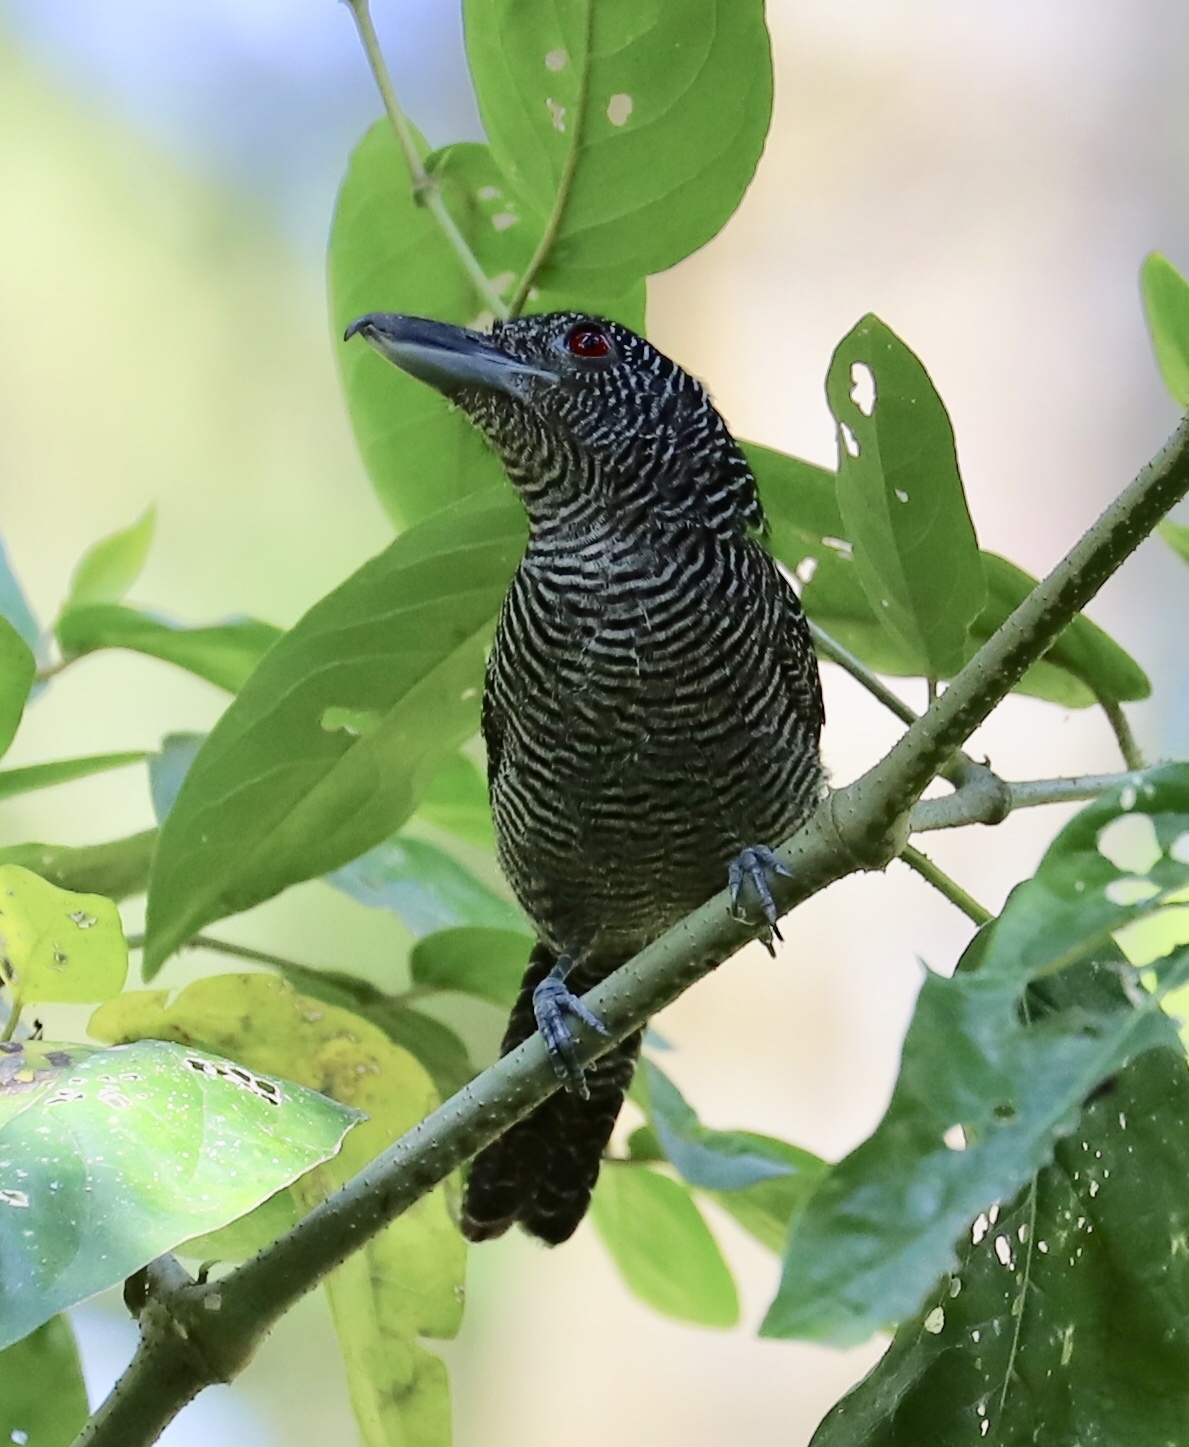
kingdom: Animalia
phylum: Chordata
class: Aves
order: Passeriformes
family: Thamnophilidae
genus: Cymbilaimus
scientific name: Cymbilaimus lineatus
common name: Fasciated antshrike
